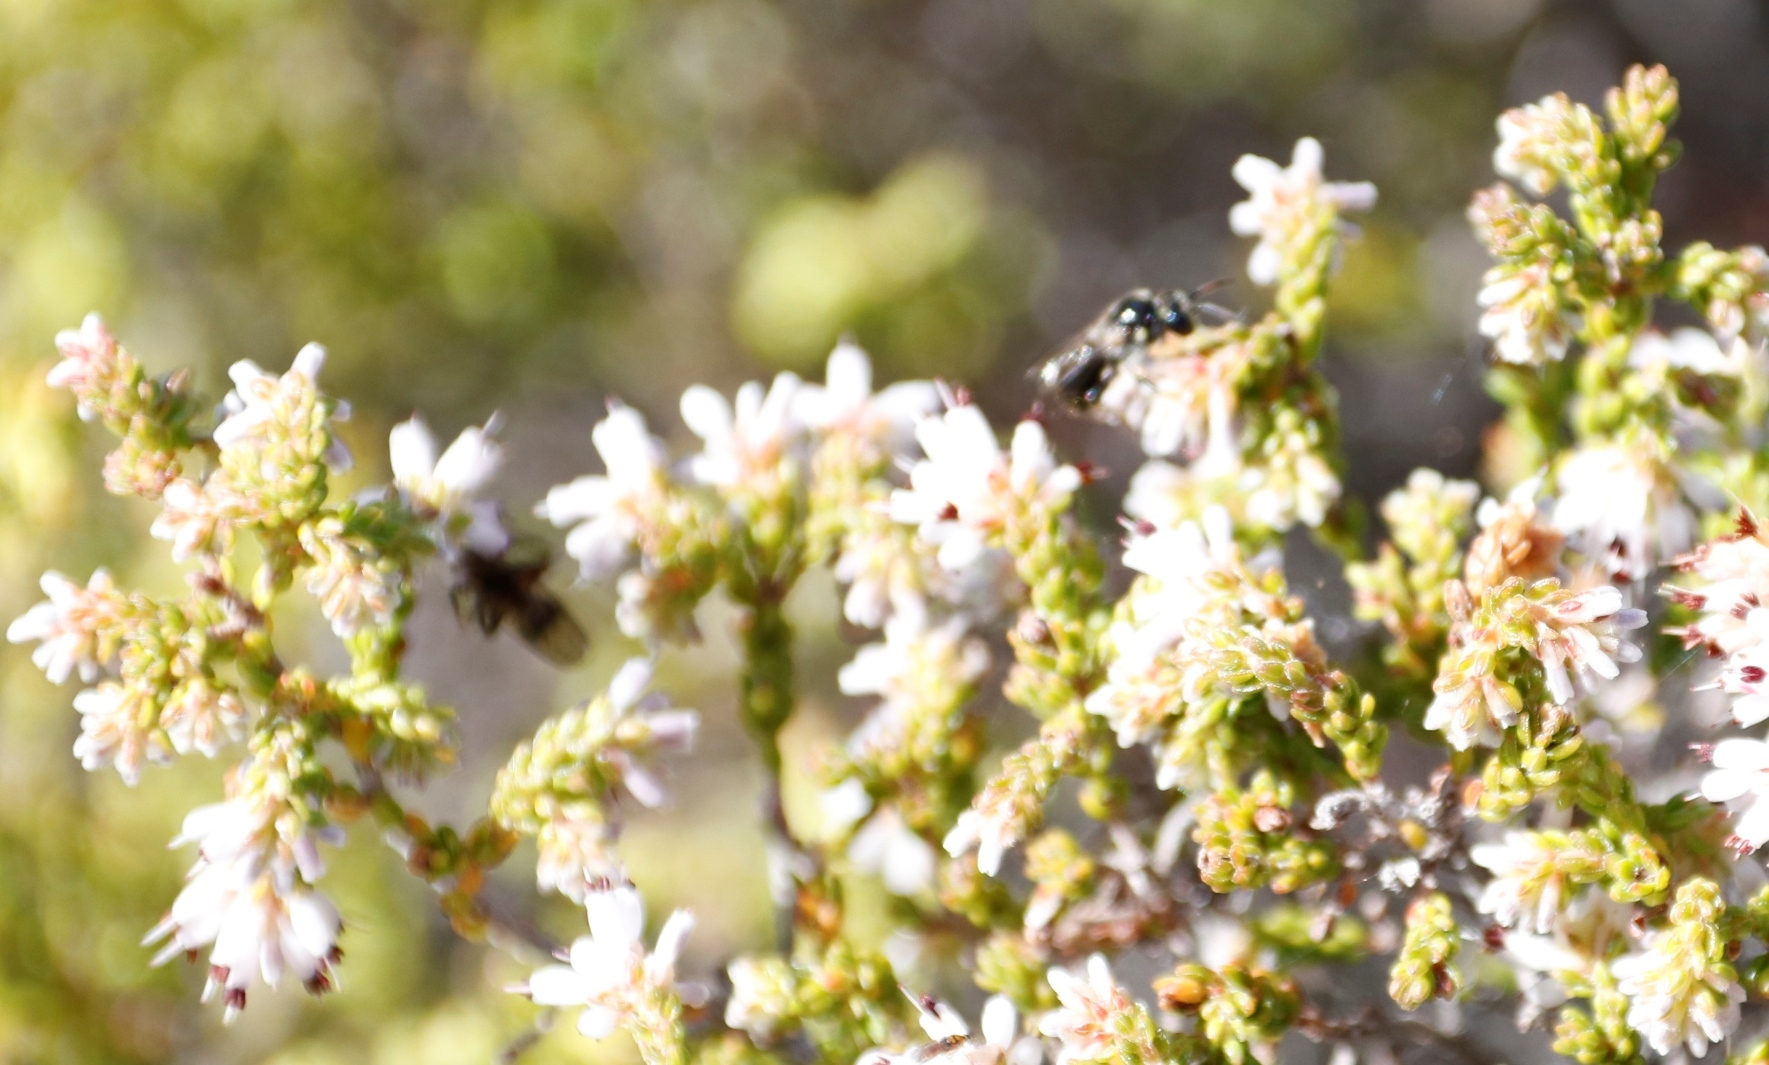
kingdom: Plantae
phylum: Tracheophyta
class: Magnoliopsida
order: Ericales
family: Ericaceae
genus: Erica
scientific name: Erica labialis
